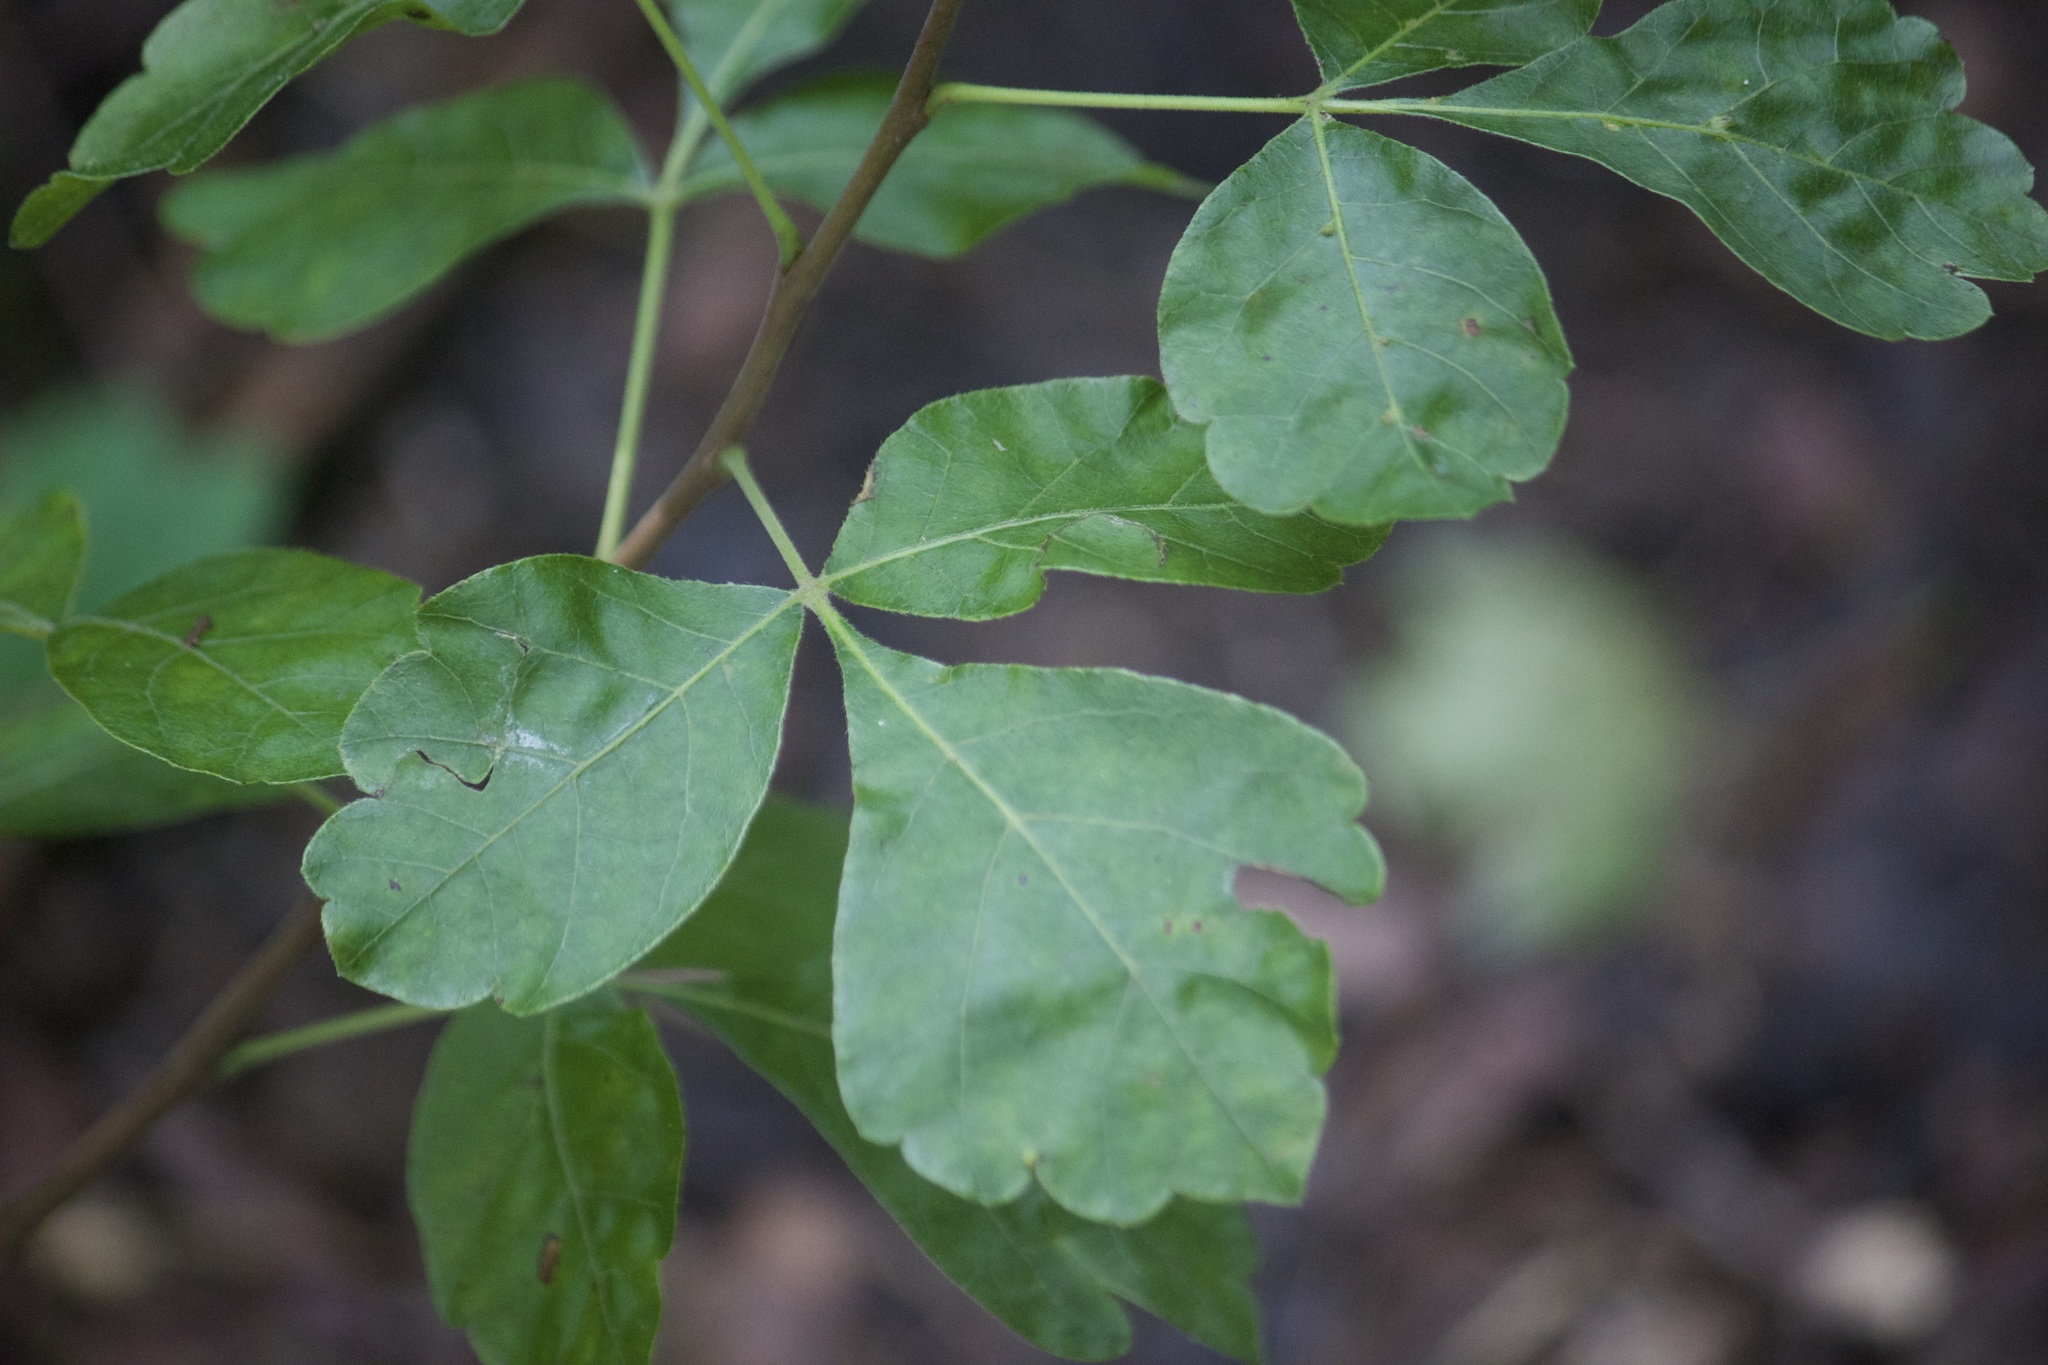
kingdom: Plantae
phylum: Tracheophyta
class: Magnoliopsida
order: Sapindales
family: Anacardiaceae
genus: Rhus
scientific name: Rhus aromatica
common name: Aromatic sumac
